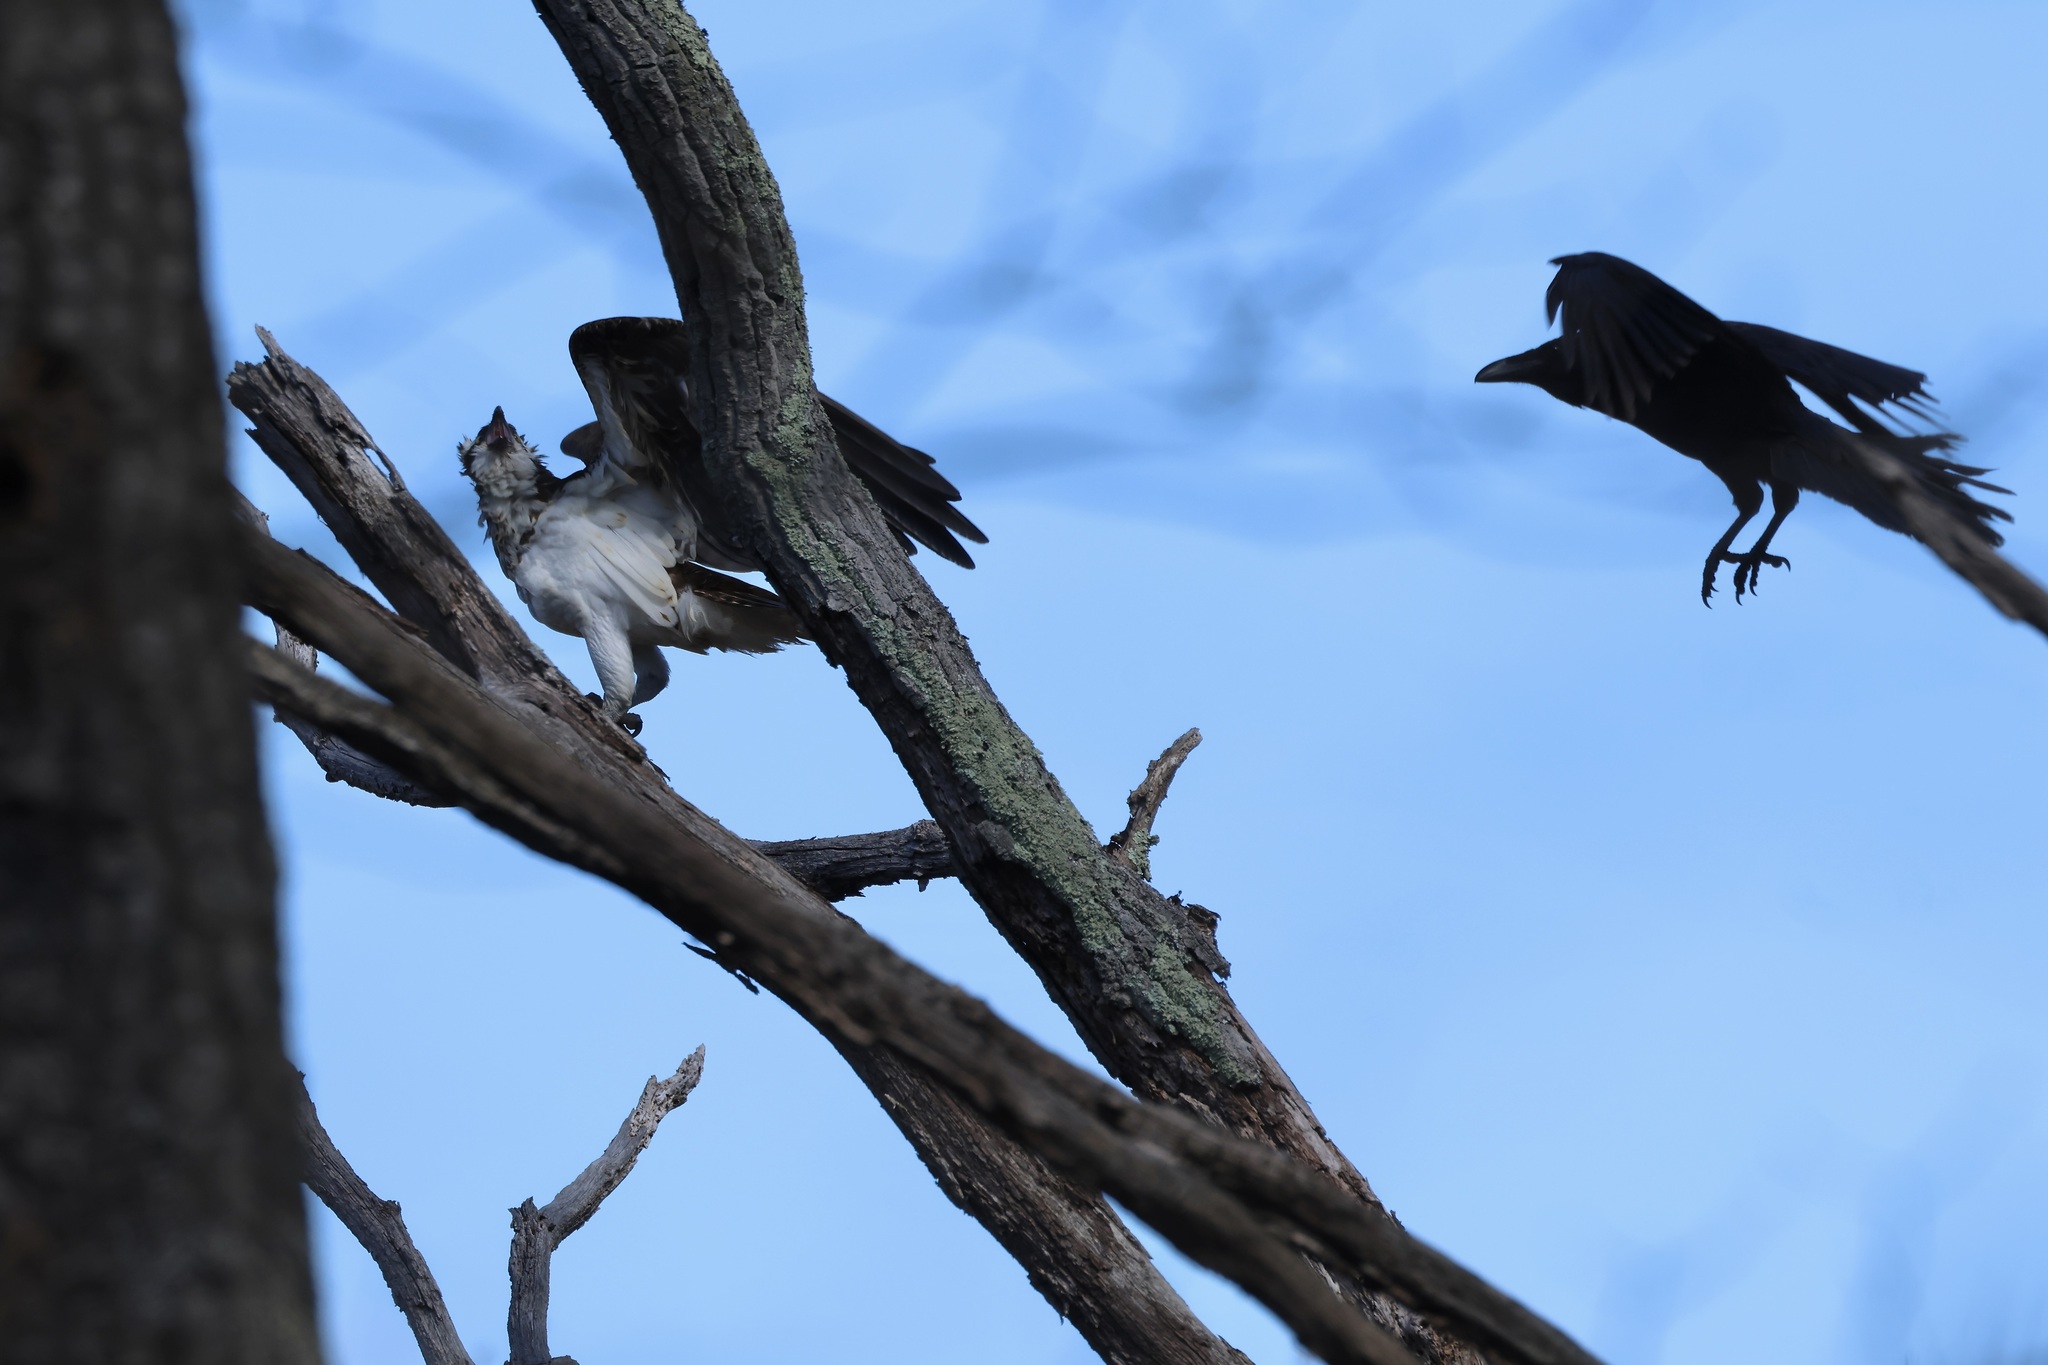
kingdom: Animalia
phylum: Chordata
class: Aves
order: Accipitriformes
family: Pandionidae
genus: Pandion
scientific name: Pandion haliaetus
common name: Osprey
